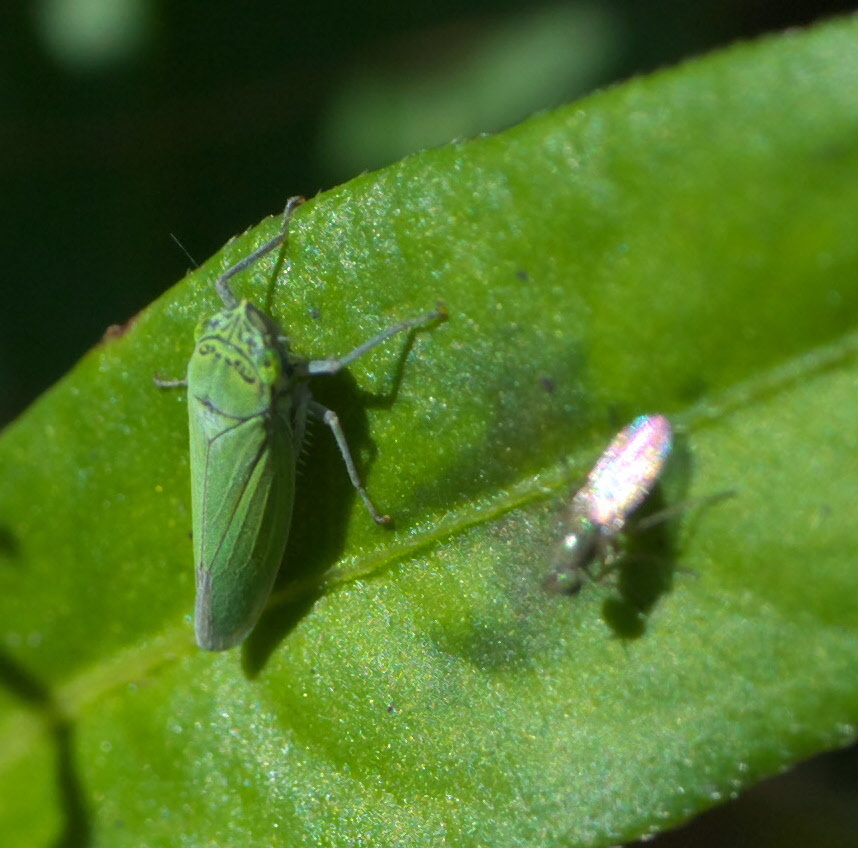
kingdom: Animalia
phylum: Arthropoda
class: Insecta
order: Hemiptera
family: Cicadellidae
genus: Draeculacephala
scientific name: Draeculacephala inscripta
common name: Leafhopper
